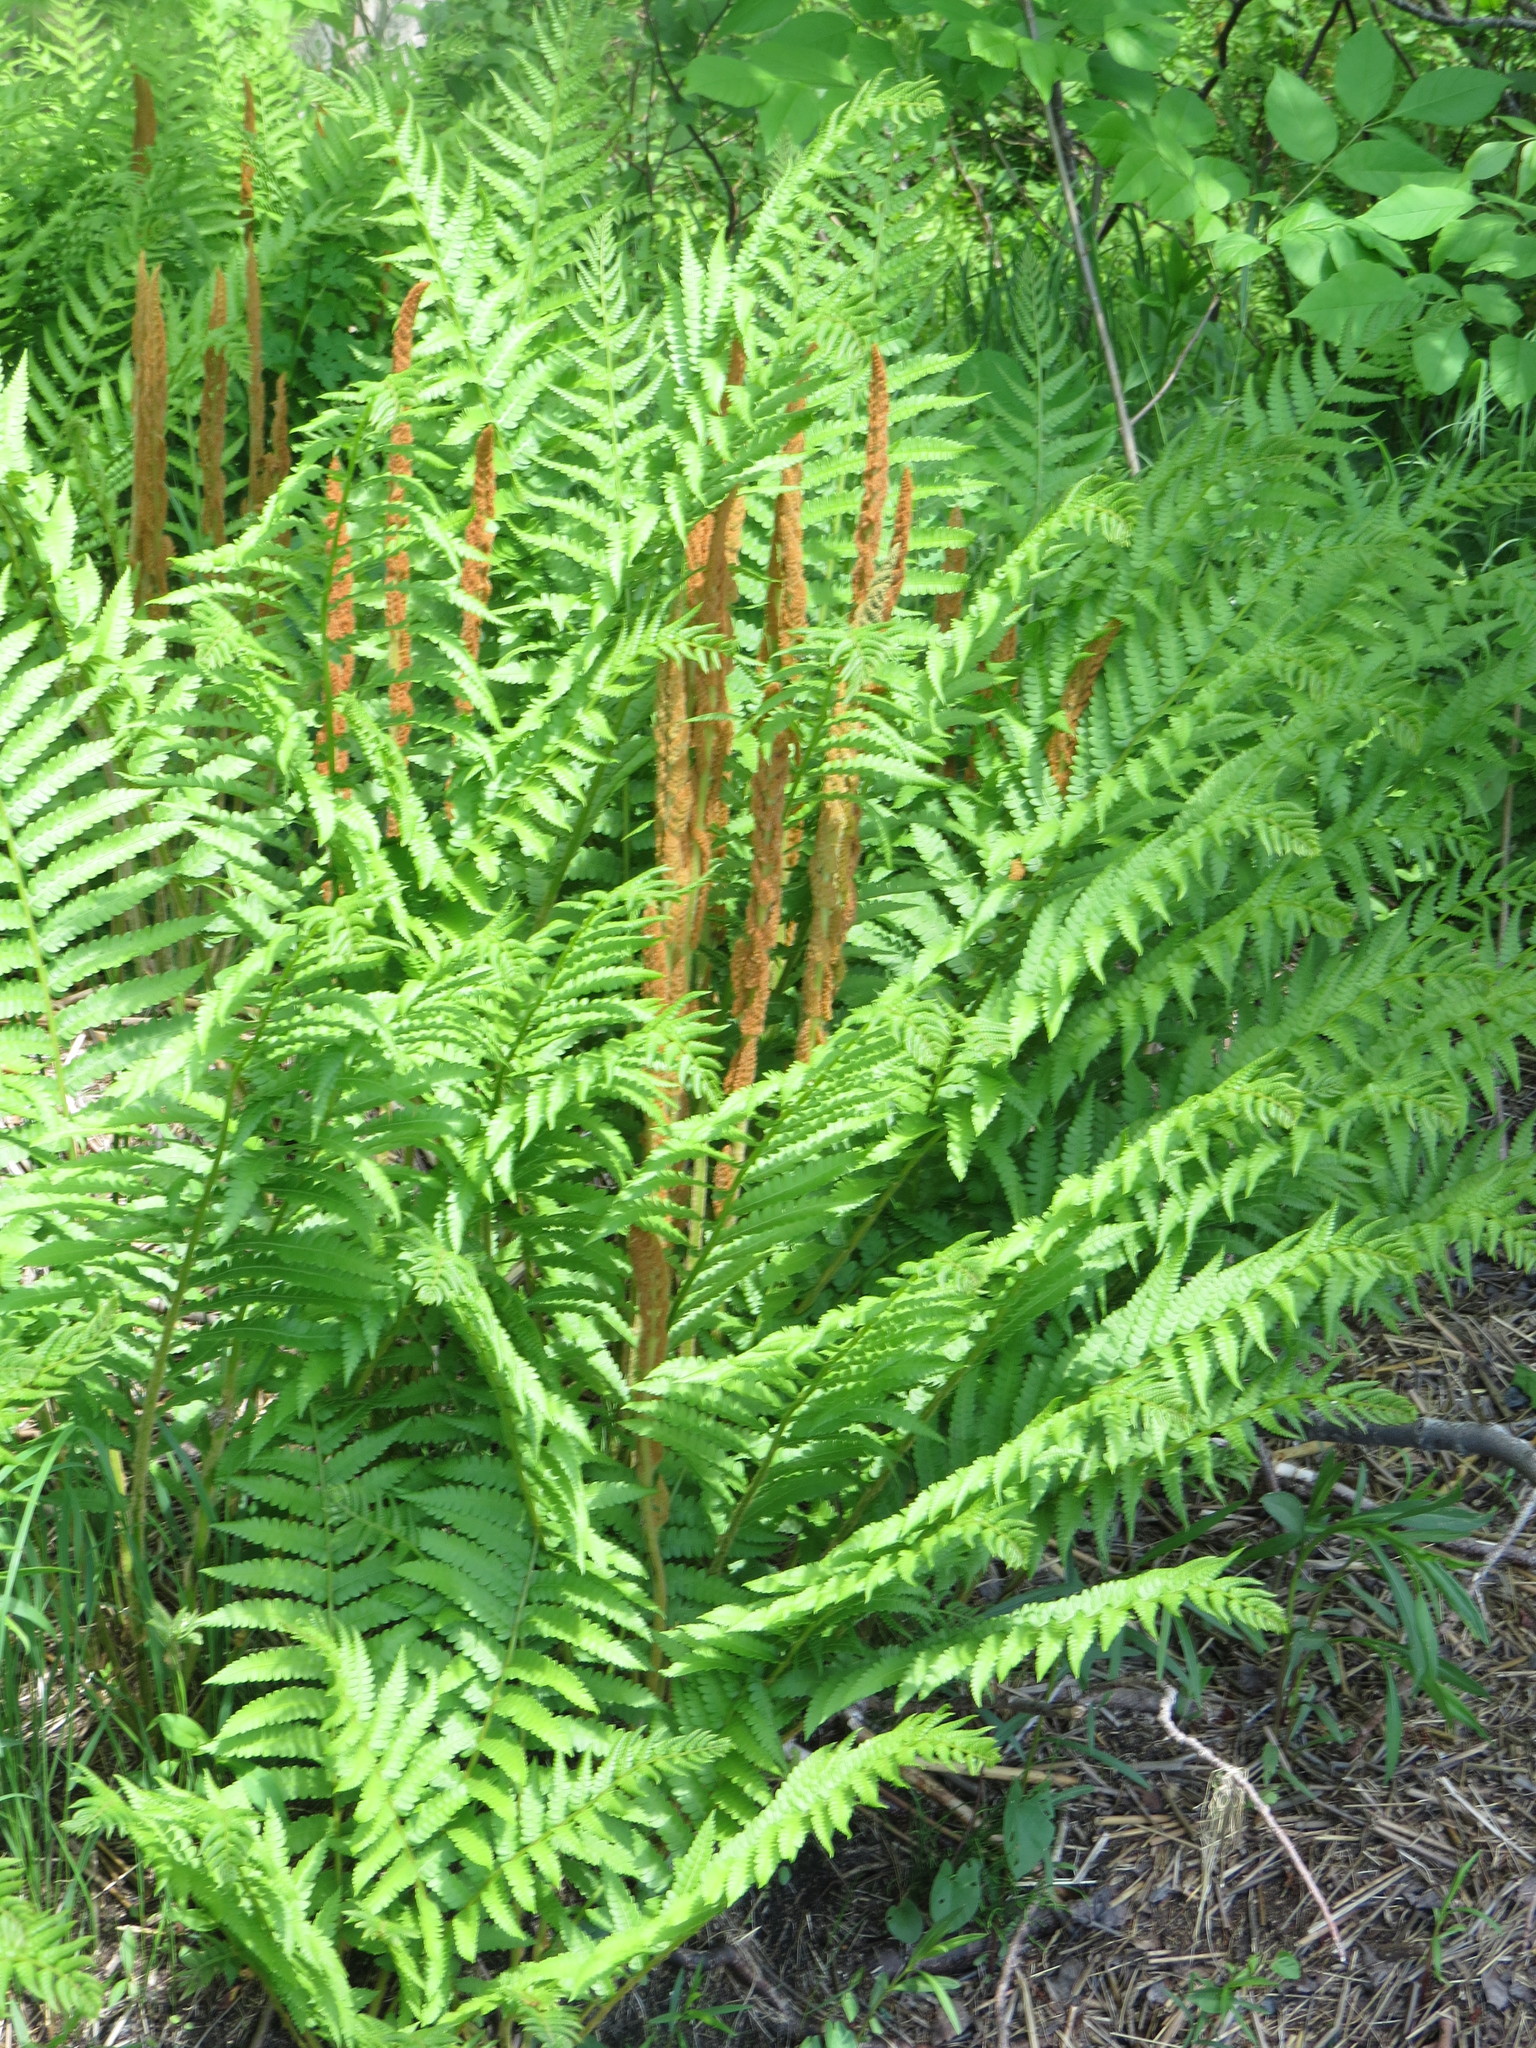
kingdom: Plantae
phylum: Tracheophyta
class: Polypodiopsida
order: Osmundales
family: Osmundaceae
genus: Osmundastrum
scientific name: Osmundastrum cinnamomeum
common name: Cinnamon fern
